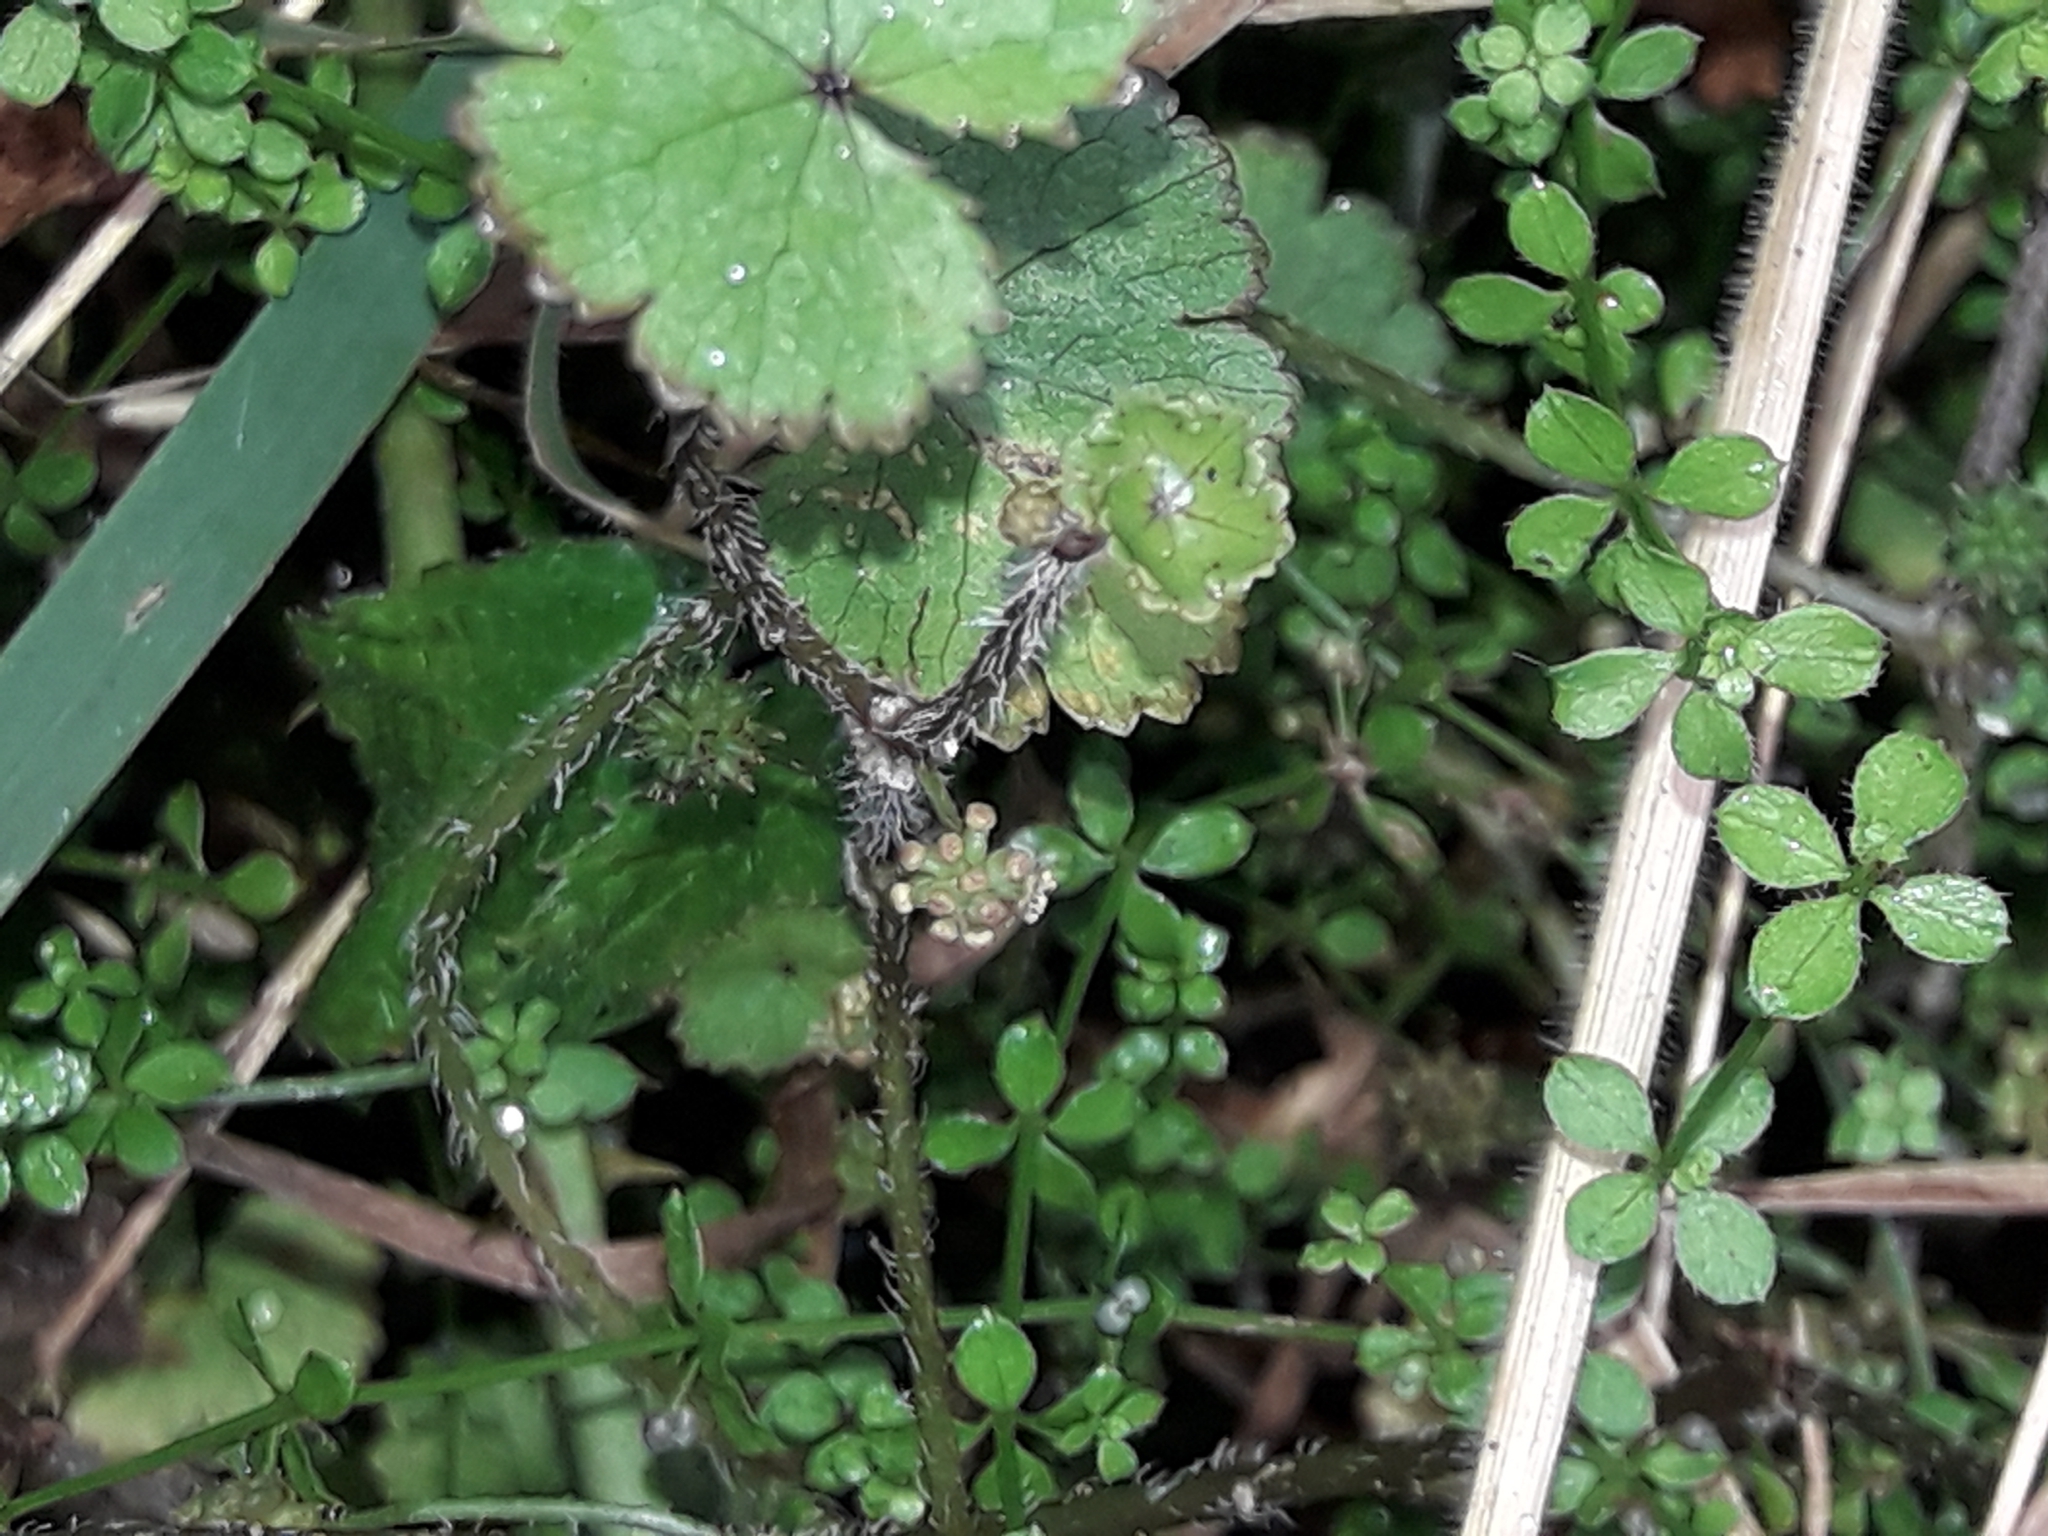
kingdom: Plantae
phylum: Tracheophyta
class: Magnoliopsida
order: Apiales
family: Araliaceae
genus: Hydrocotyle
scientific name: Hydrocotyle moschata
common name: Hairy pennywort
